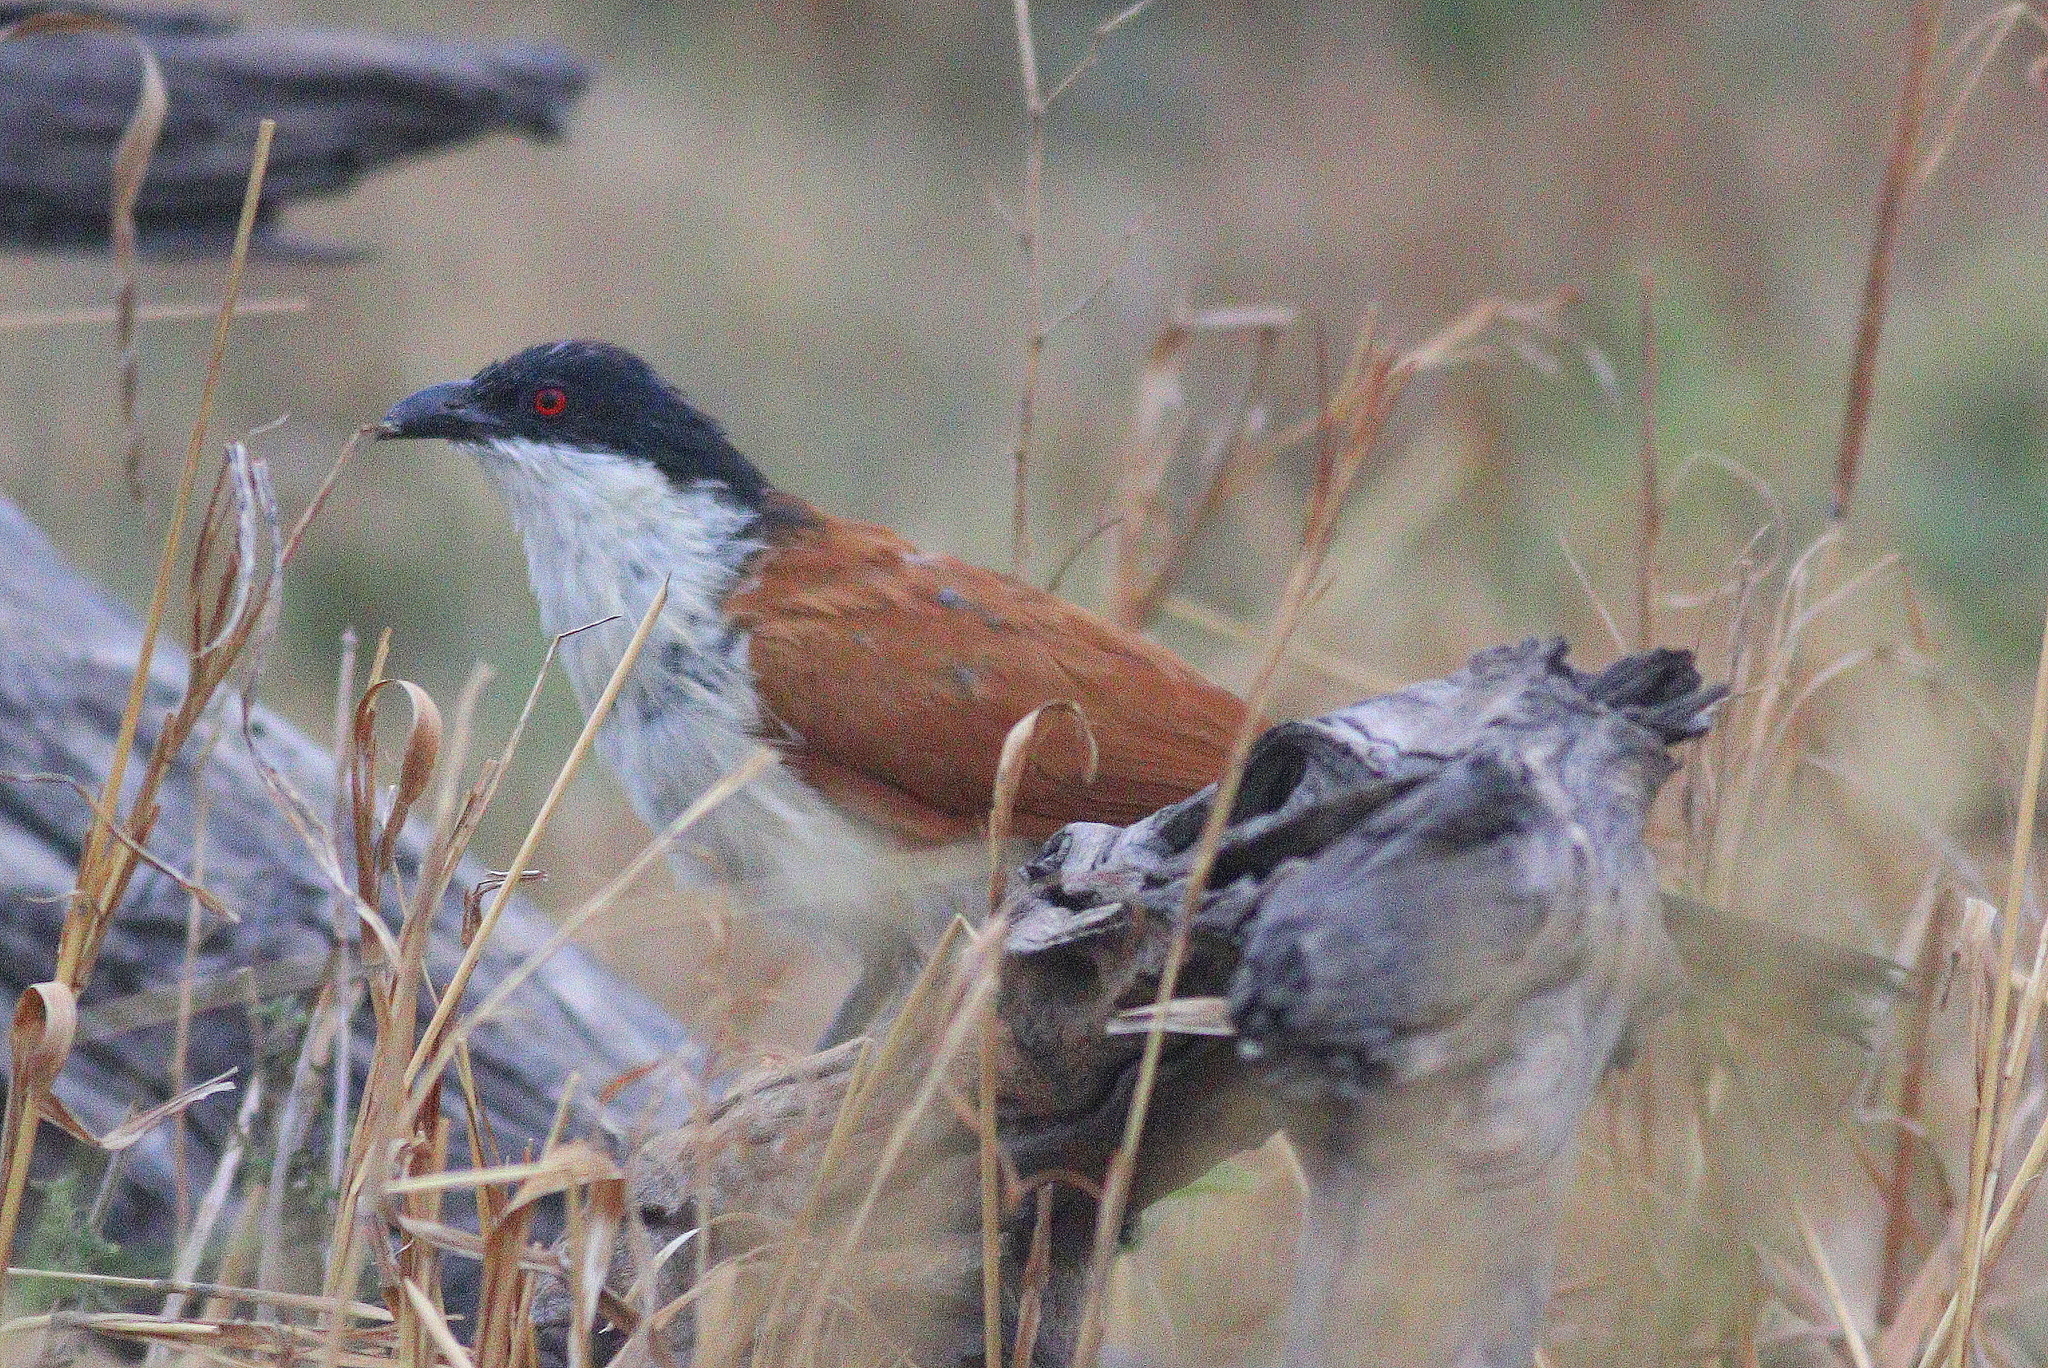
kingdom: Animalia
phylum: Chordata
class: Aves
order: Cuculiformes
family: Cuculidae
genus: Centropus
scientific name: Centropus senegalensis
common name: Senegal coucal
